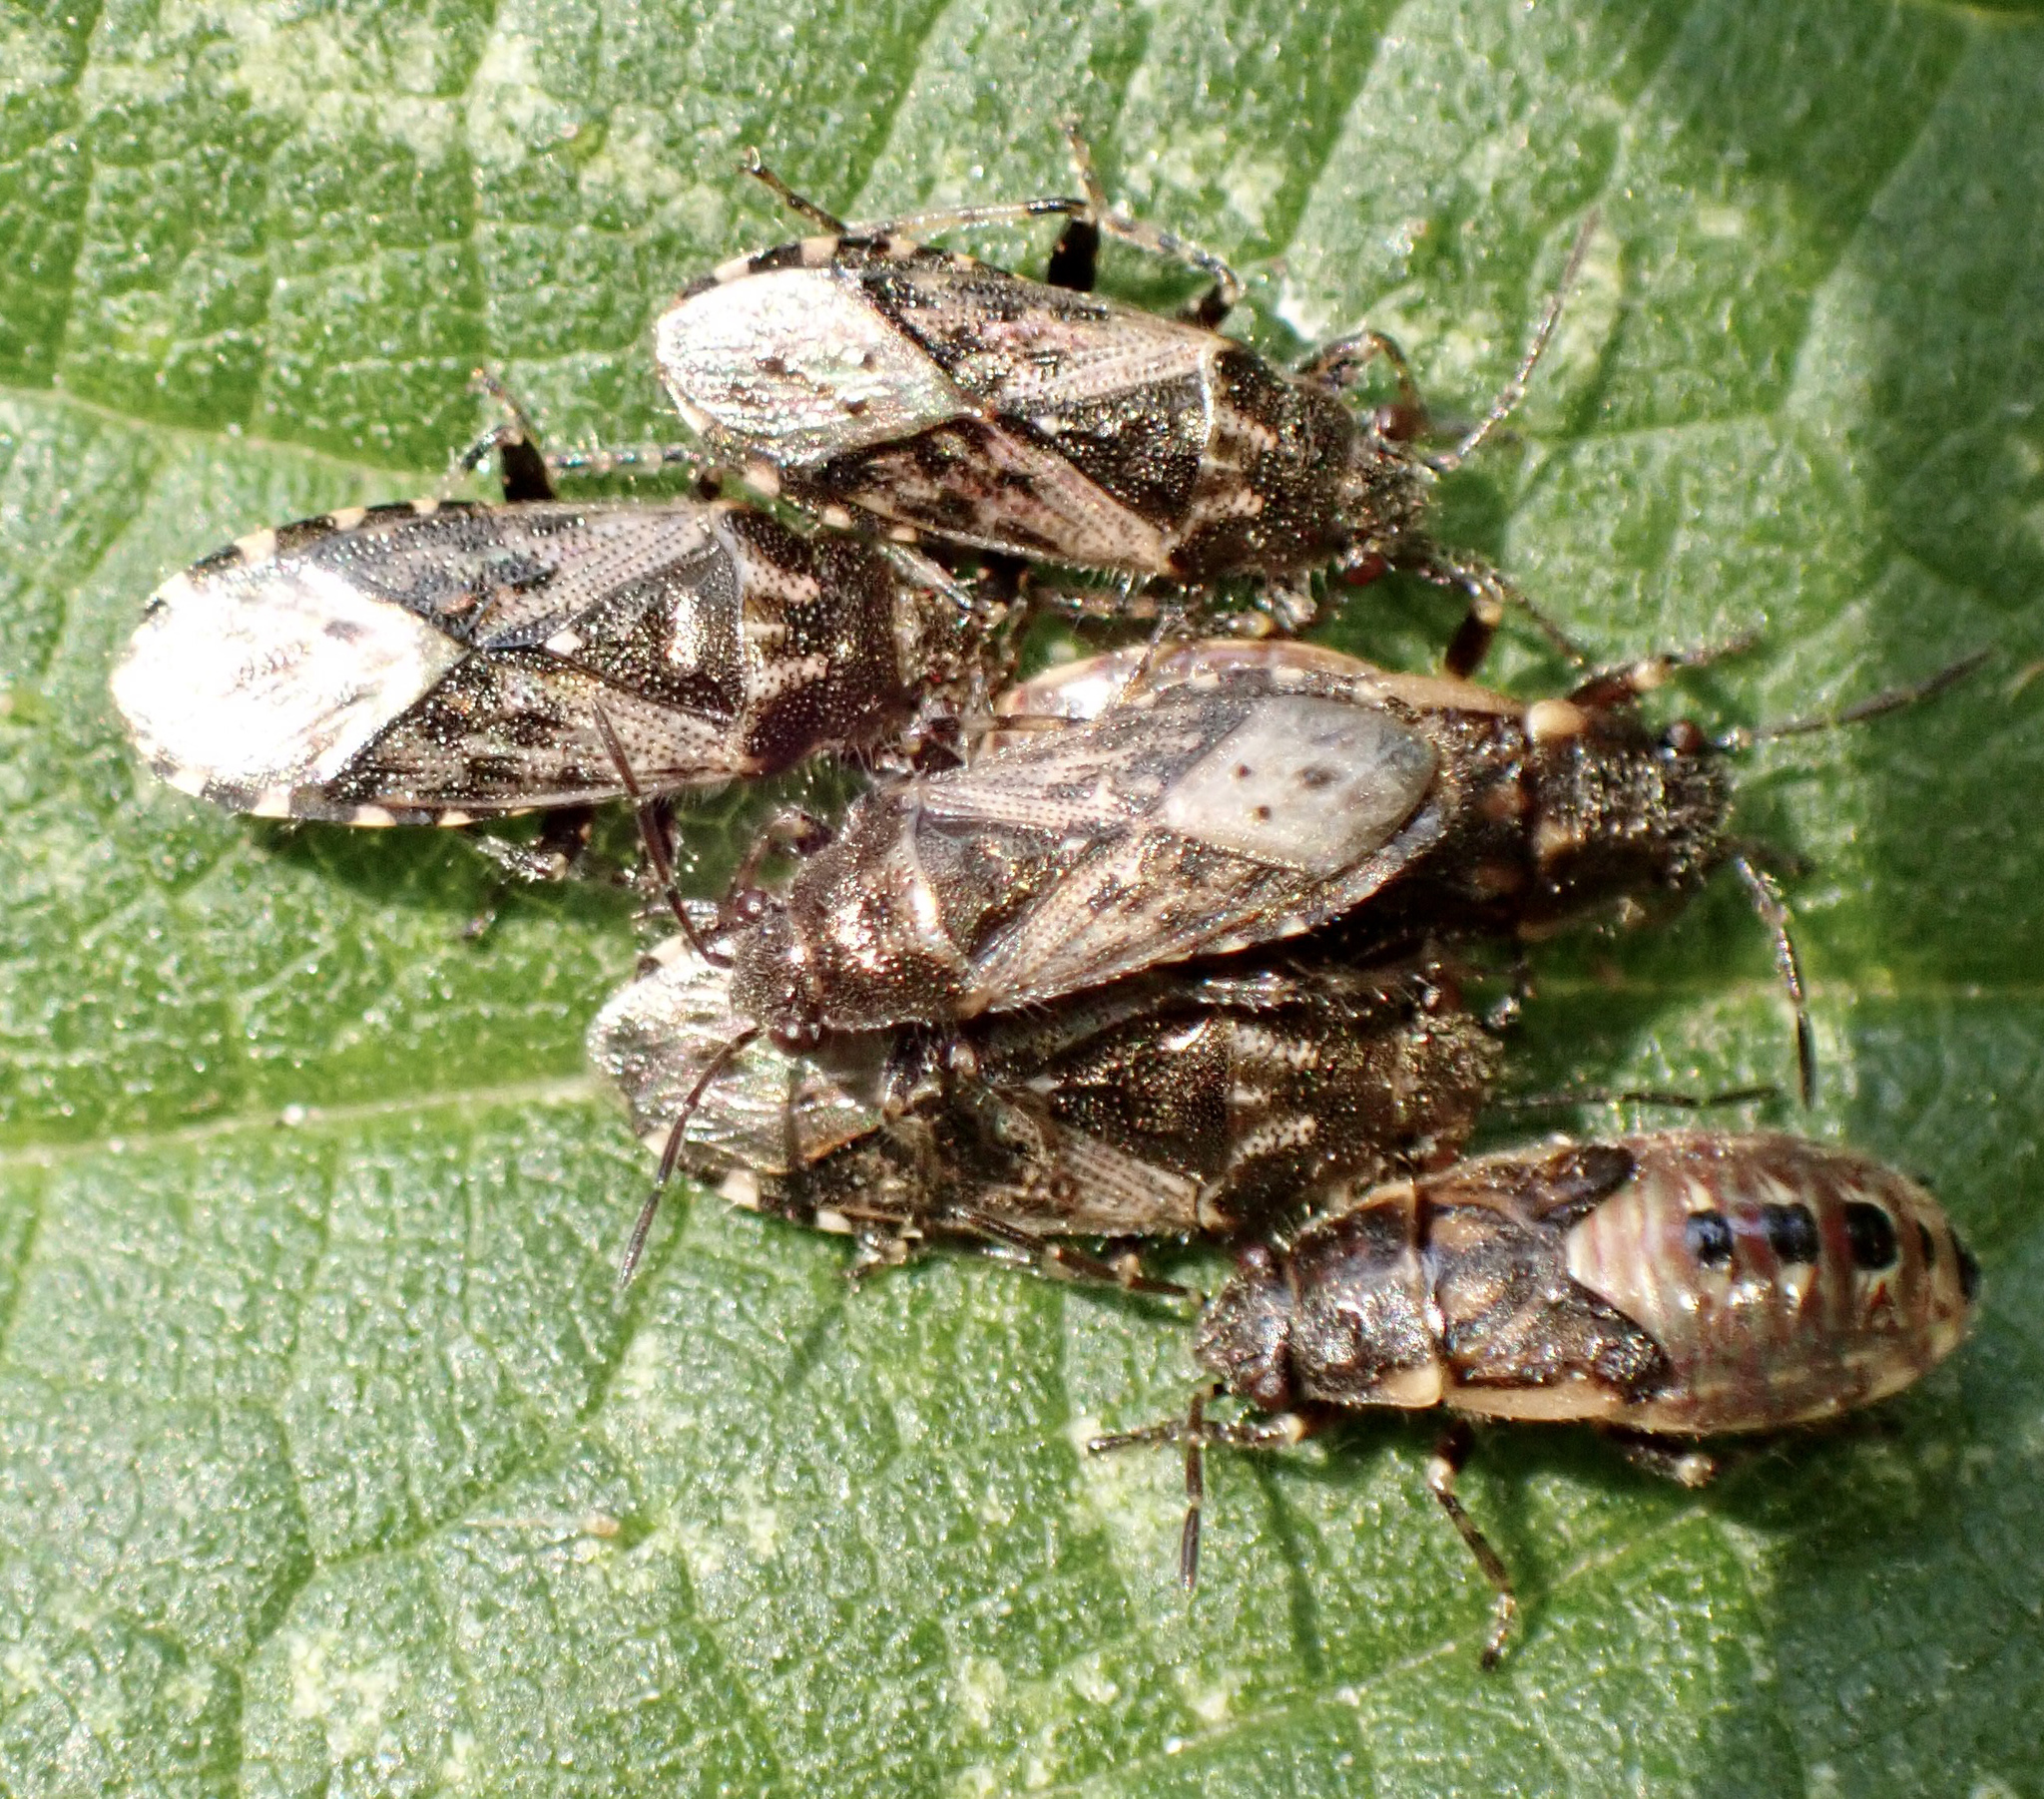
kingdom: Animalia
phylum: Arthropoda
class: Insecta
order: Hemiptera
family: Heterogastridae
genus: Heterogaster
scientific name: Heterogaster urticae
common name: Seed bug
